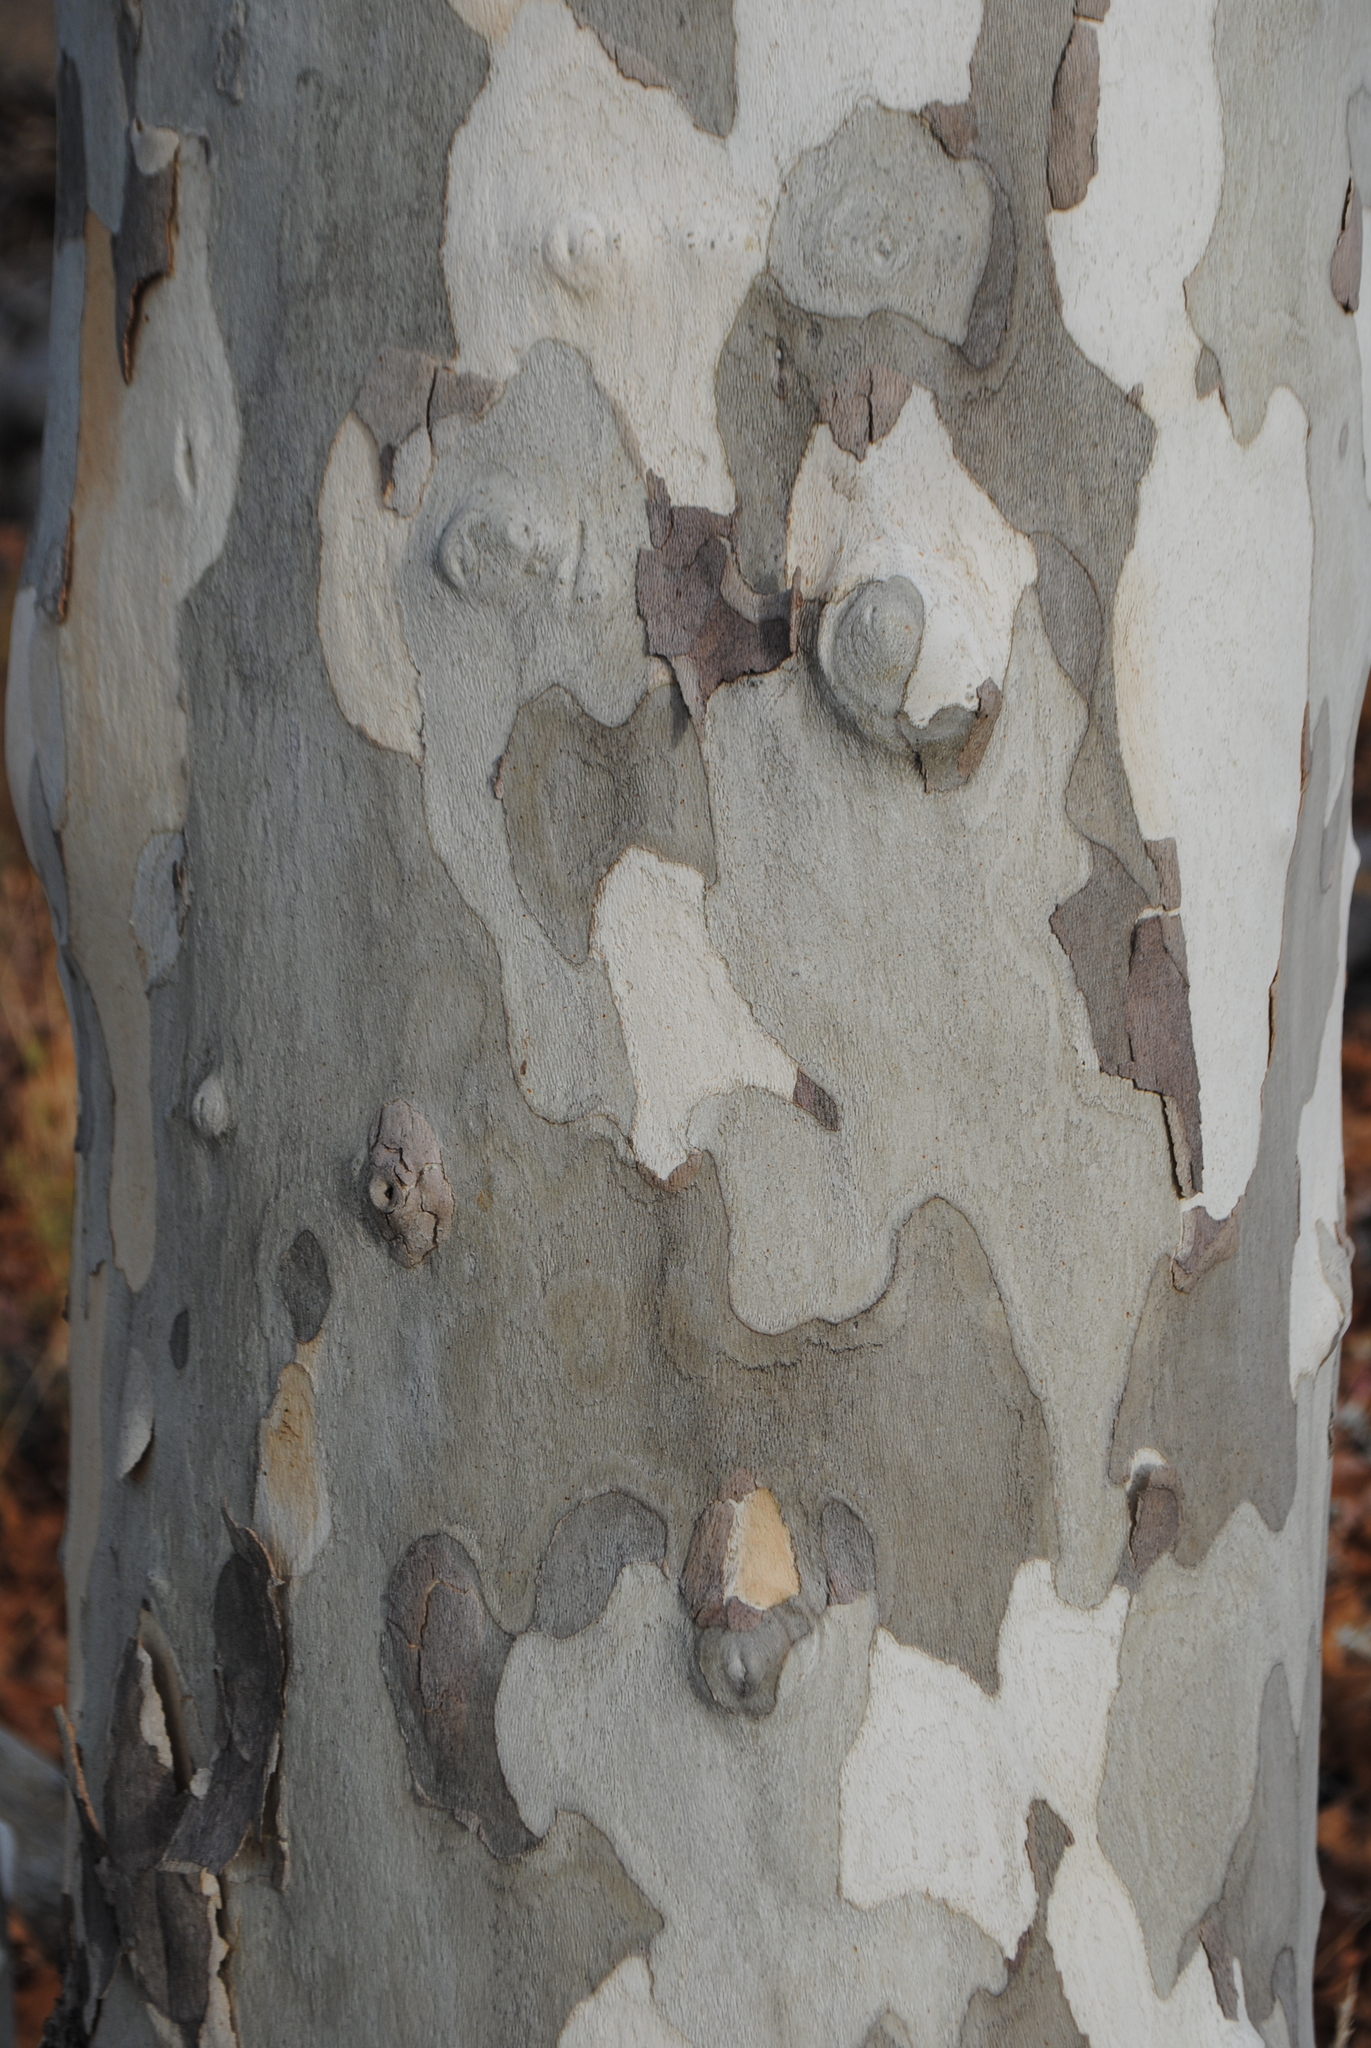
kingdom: Plantae
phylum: Tracheophyta
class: Magnoliopsida
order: Proteales
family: Platanaceae
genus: Platanus
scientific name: Platanus wrightii
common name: Arizona sycamore
